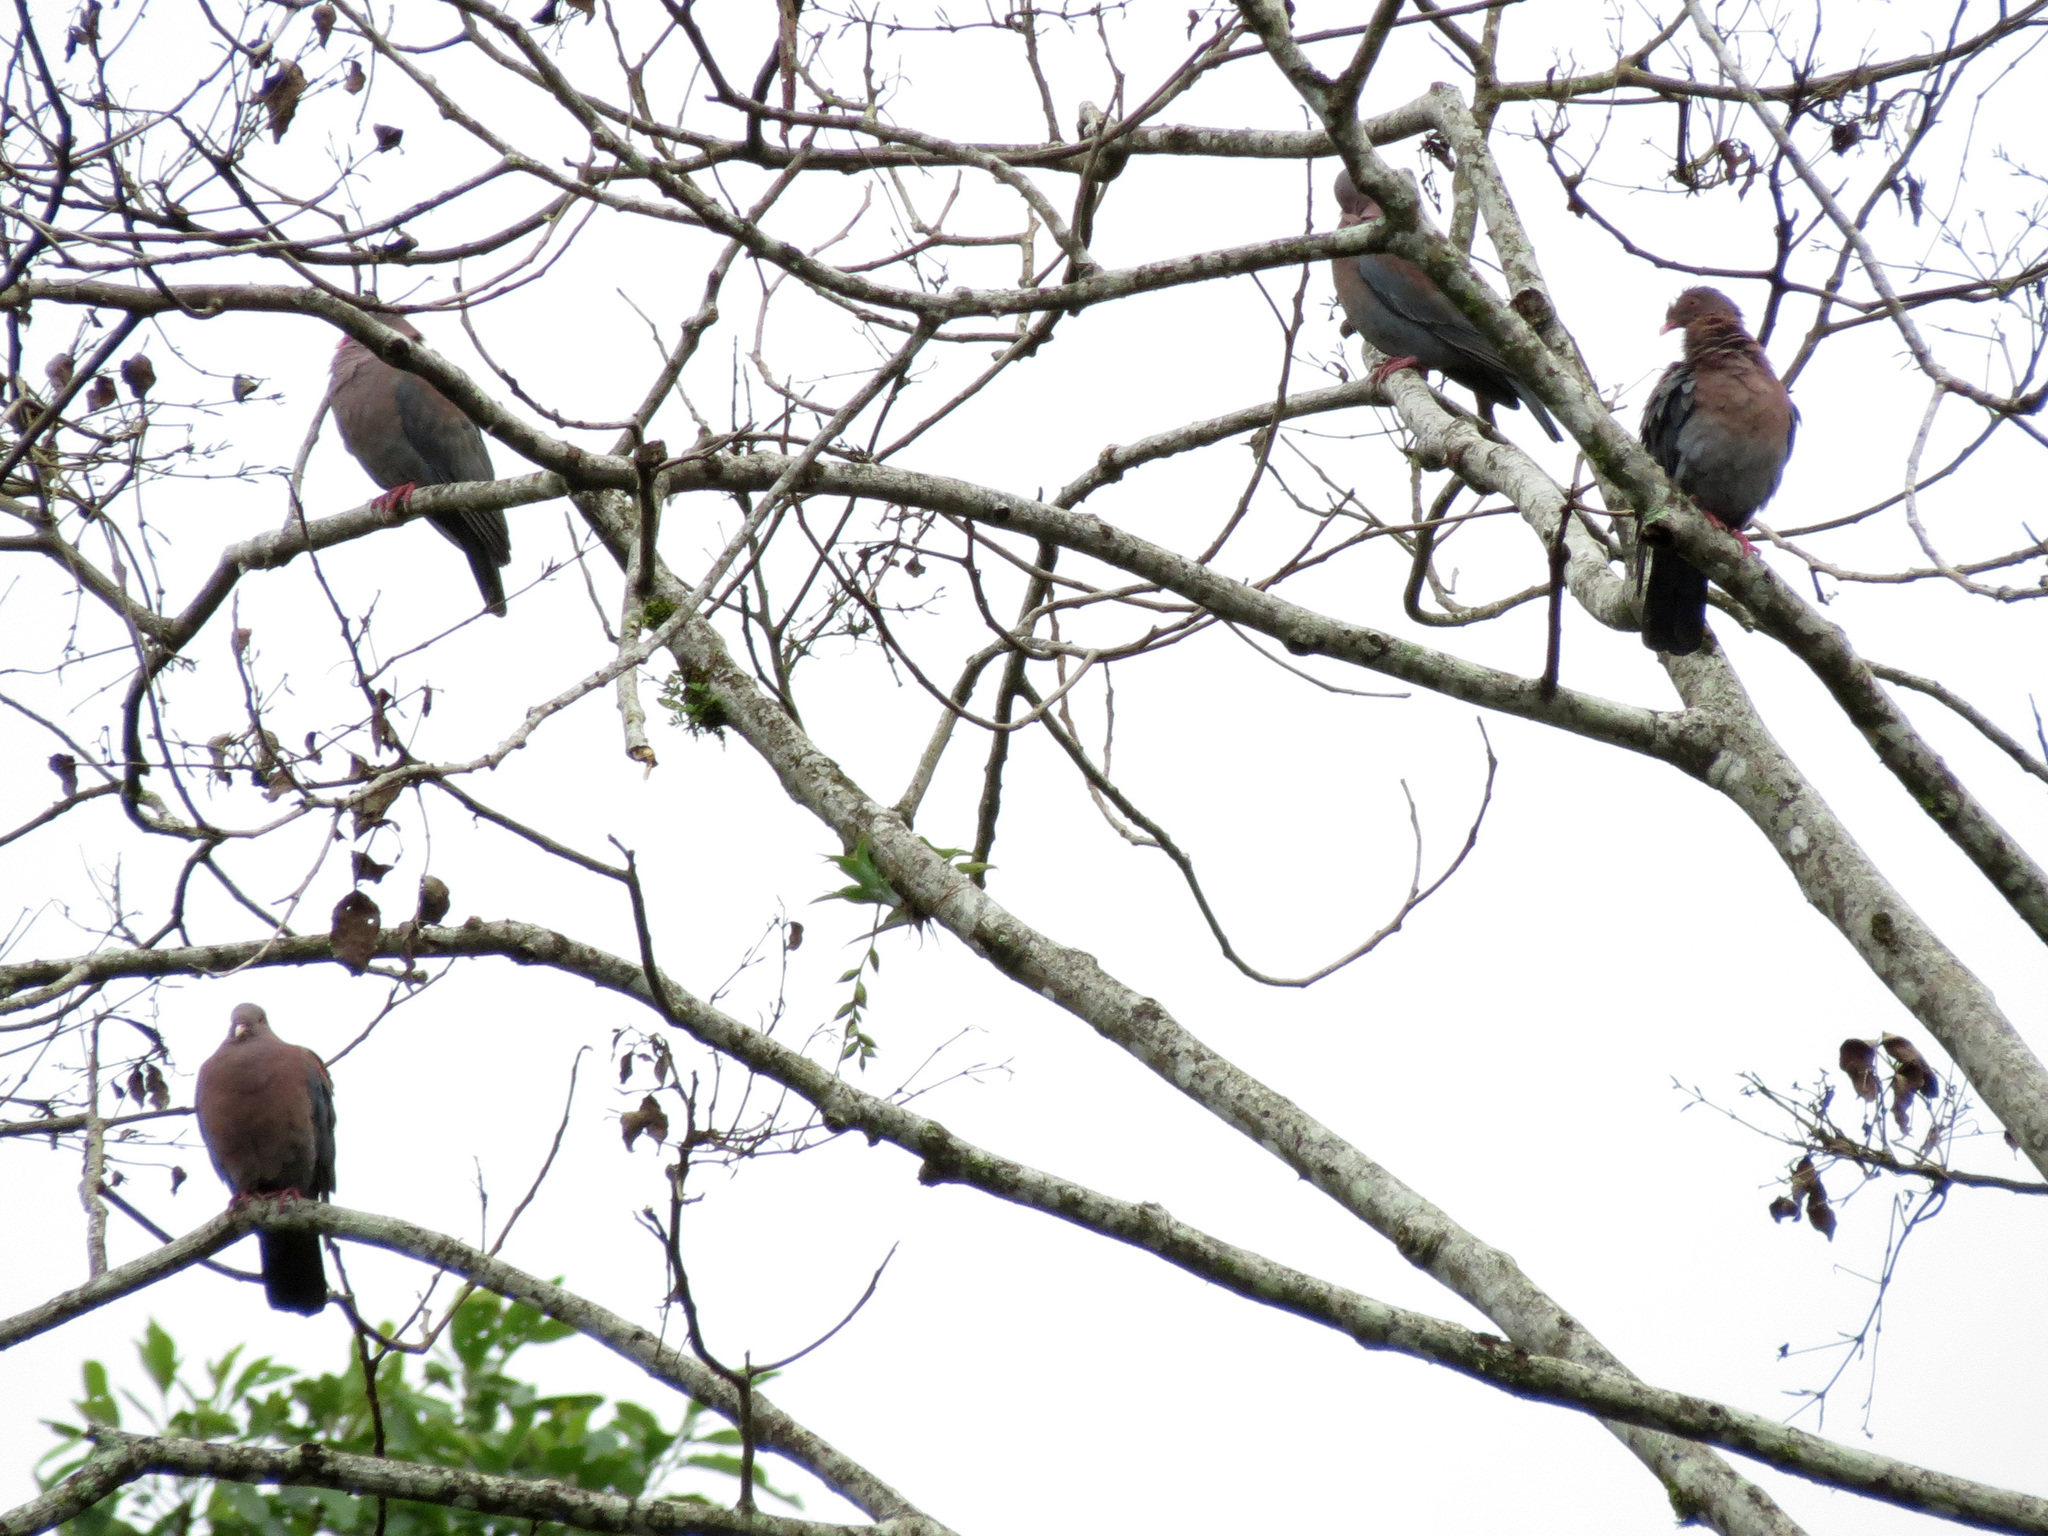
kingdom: Animalia
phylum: Chordata
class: Aves
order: Columbiformes
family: Columbidae
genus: Patagioenas
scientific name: Patagioenas flavirostris
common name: Red-billed pigeon
